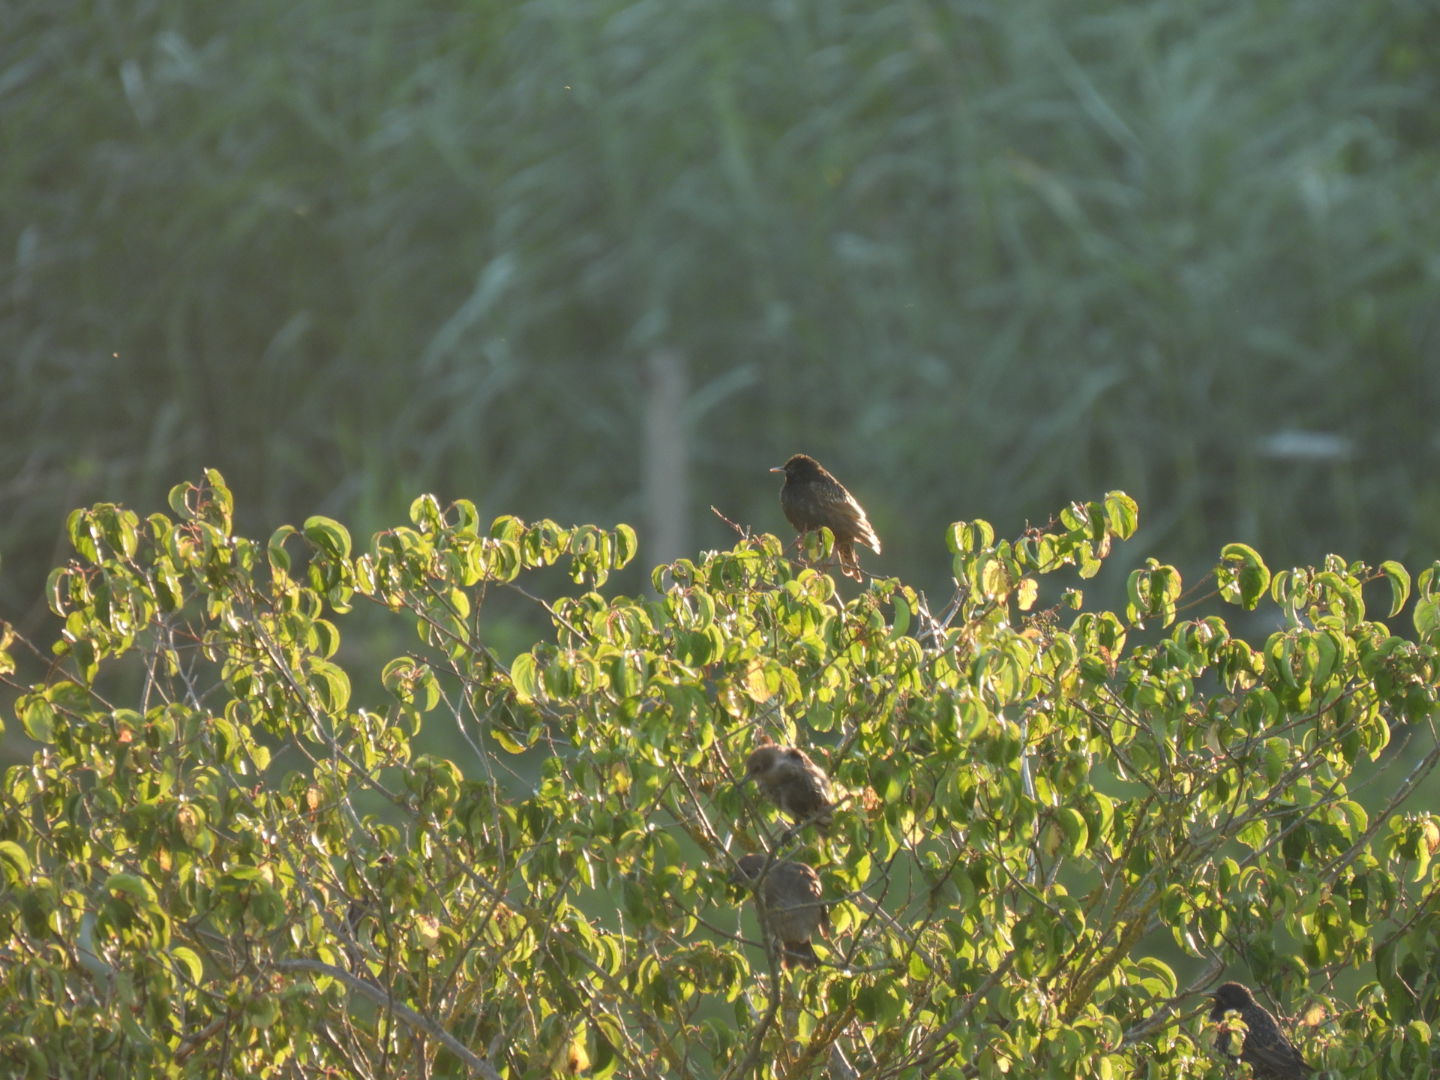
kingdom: Animalia
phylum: Chordata
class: Aves
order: Passeriformes
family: Sturnidae
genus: Sturnus
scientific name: Sturnus vulgaris
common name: Common starling
